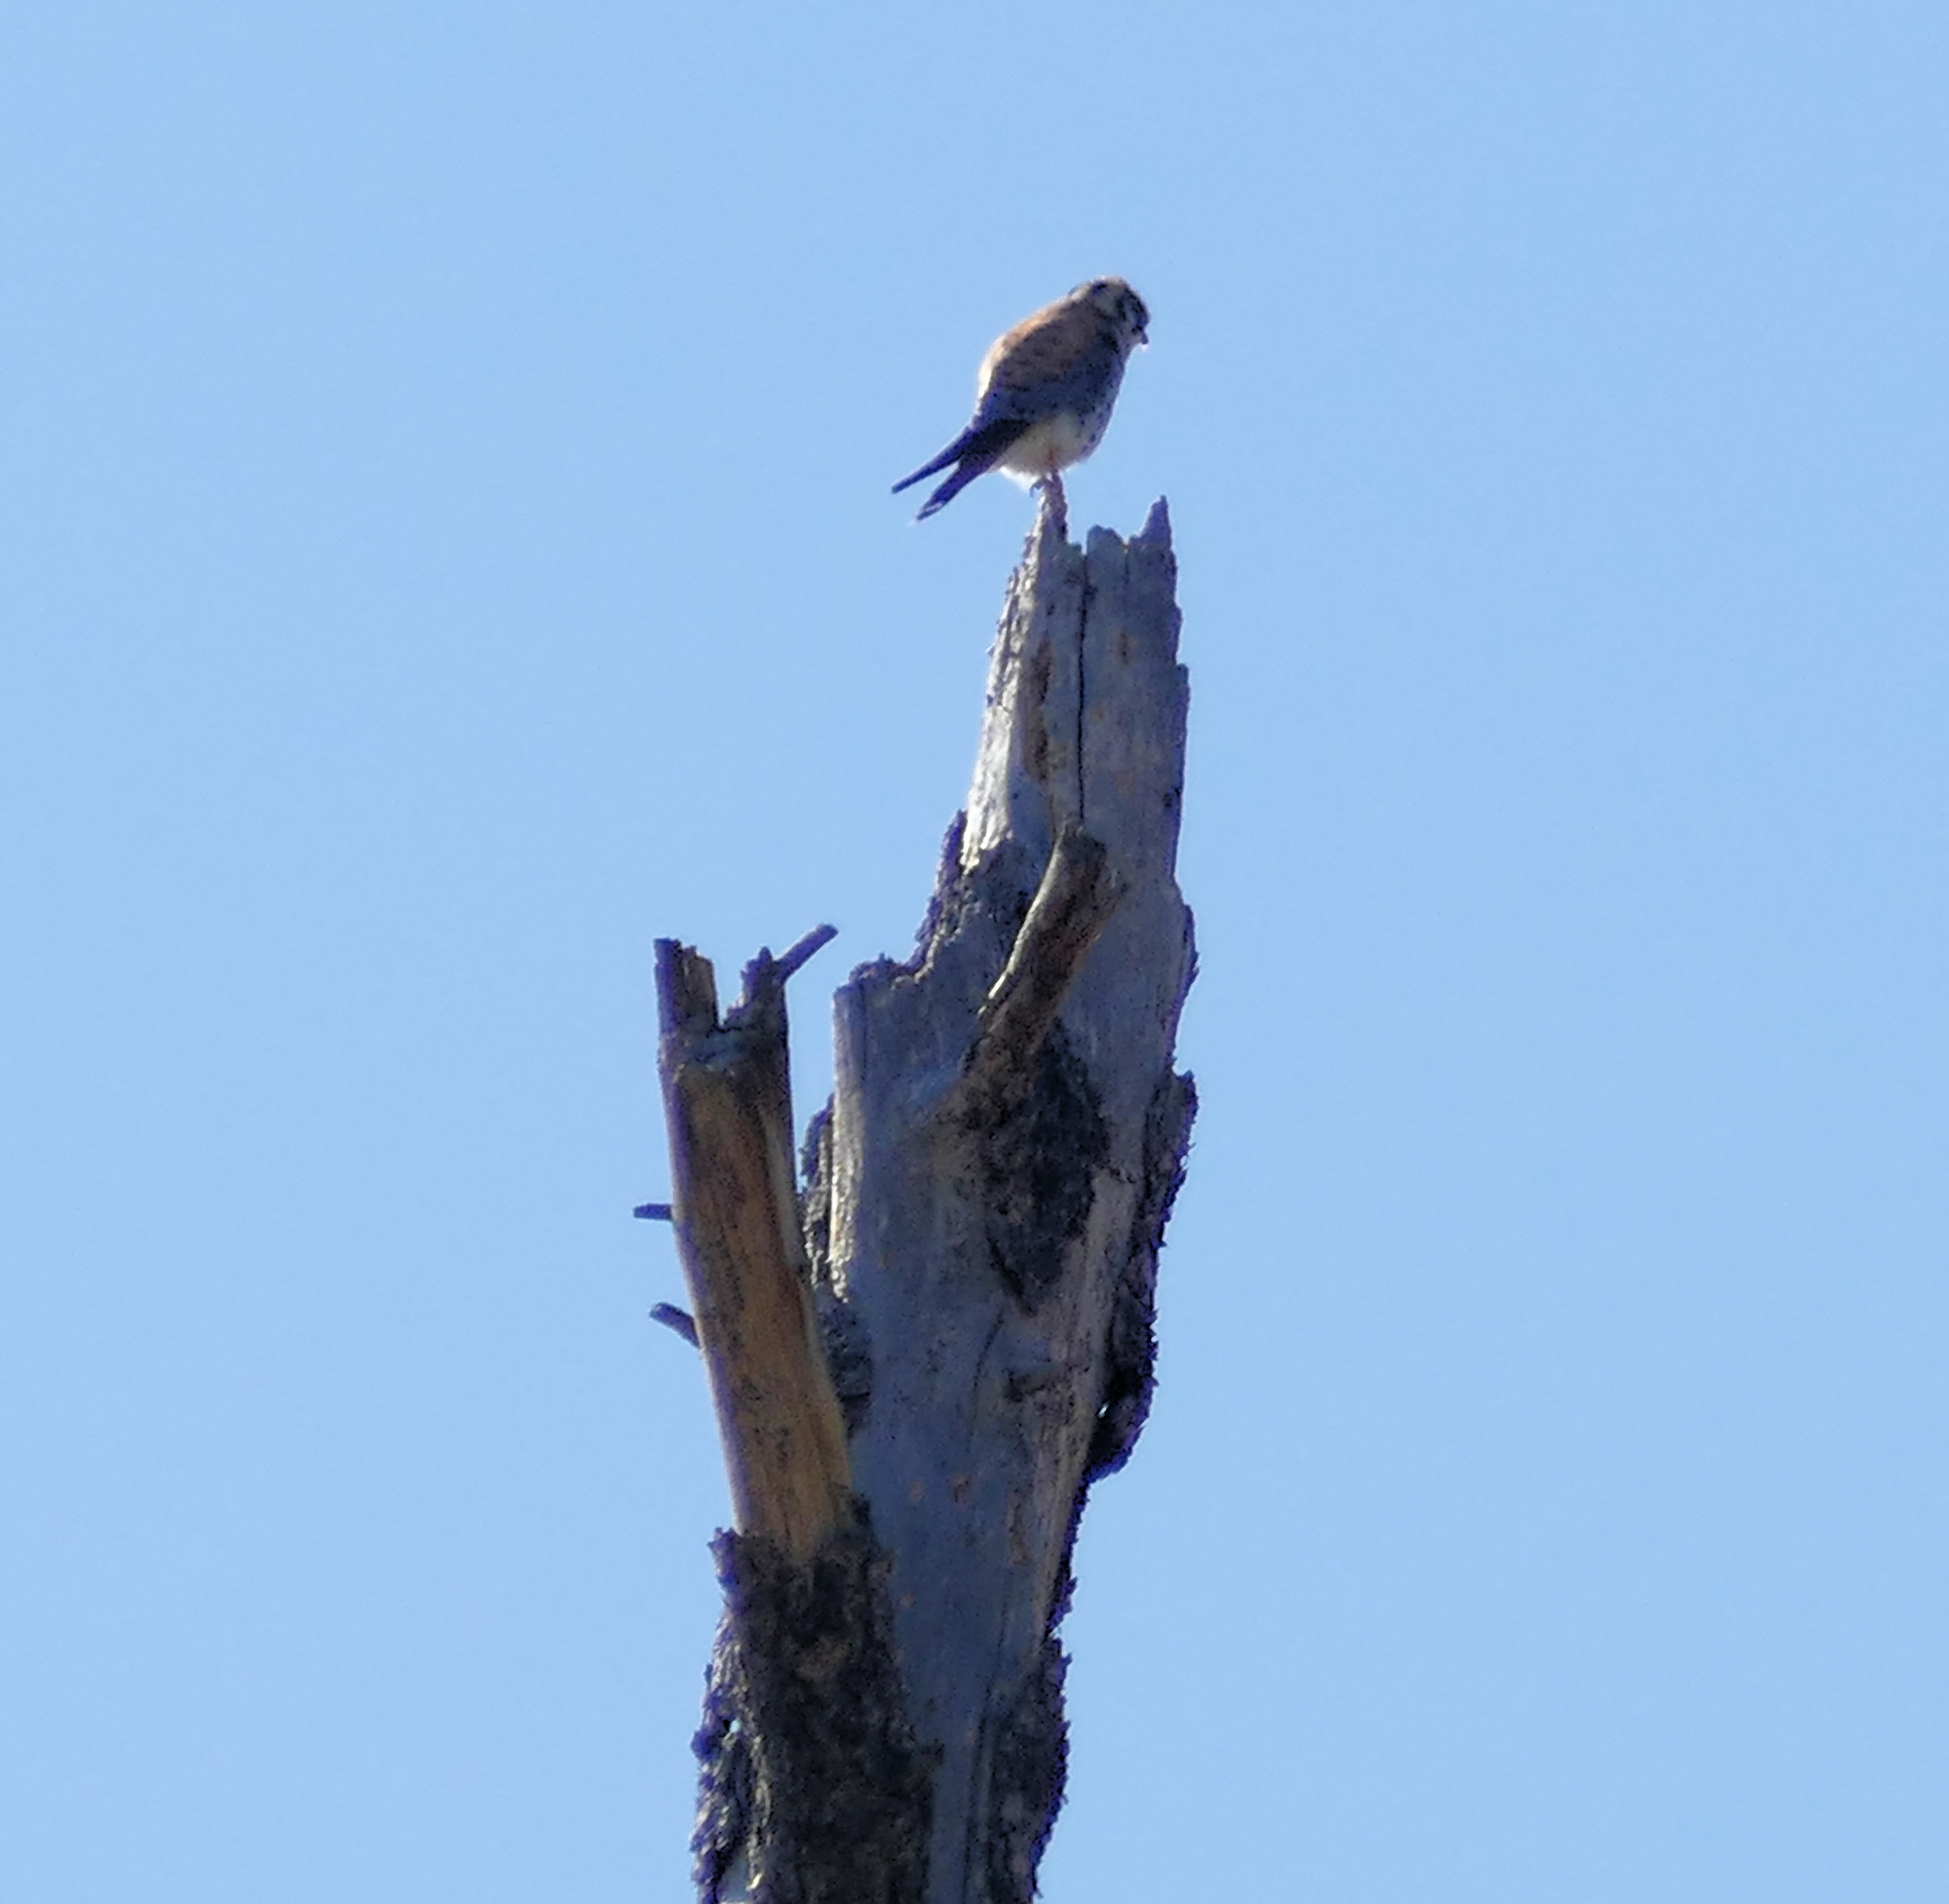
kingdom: Animalia
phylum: Chordata
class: Aves
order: Falconiformes
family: Falconidae
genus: Falco
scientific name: Falco sparverius
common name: American kestrel
